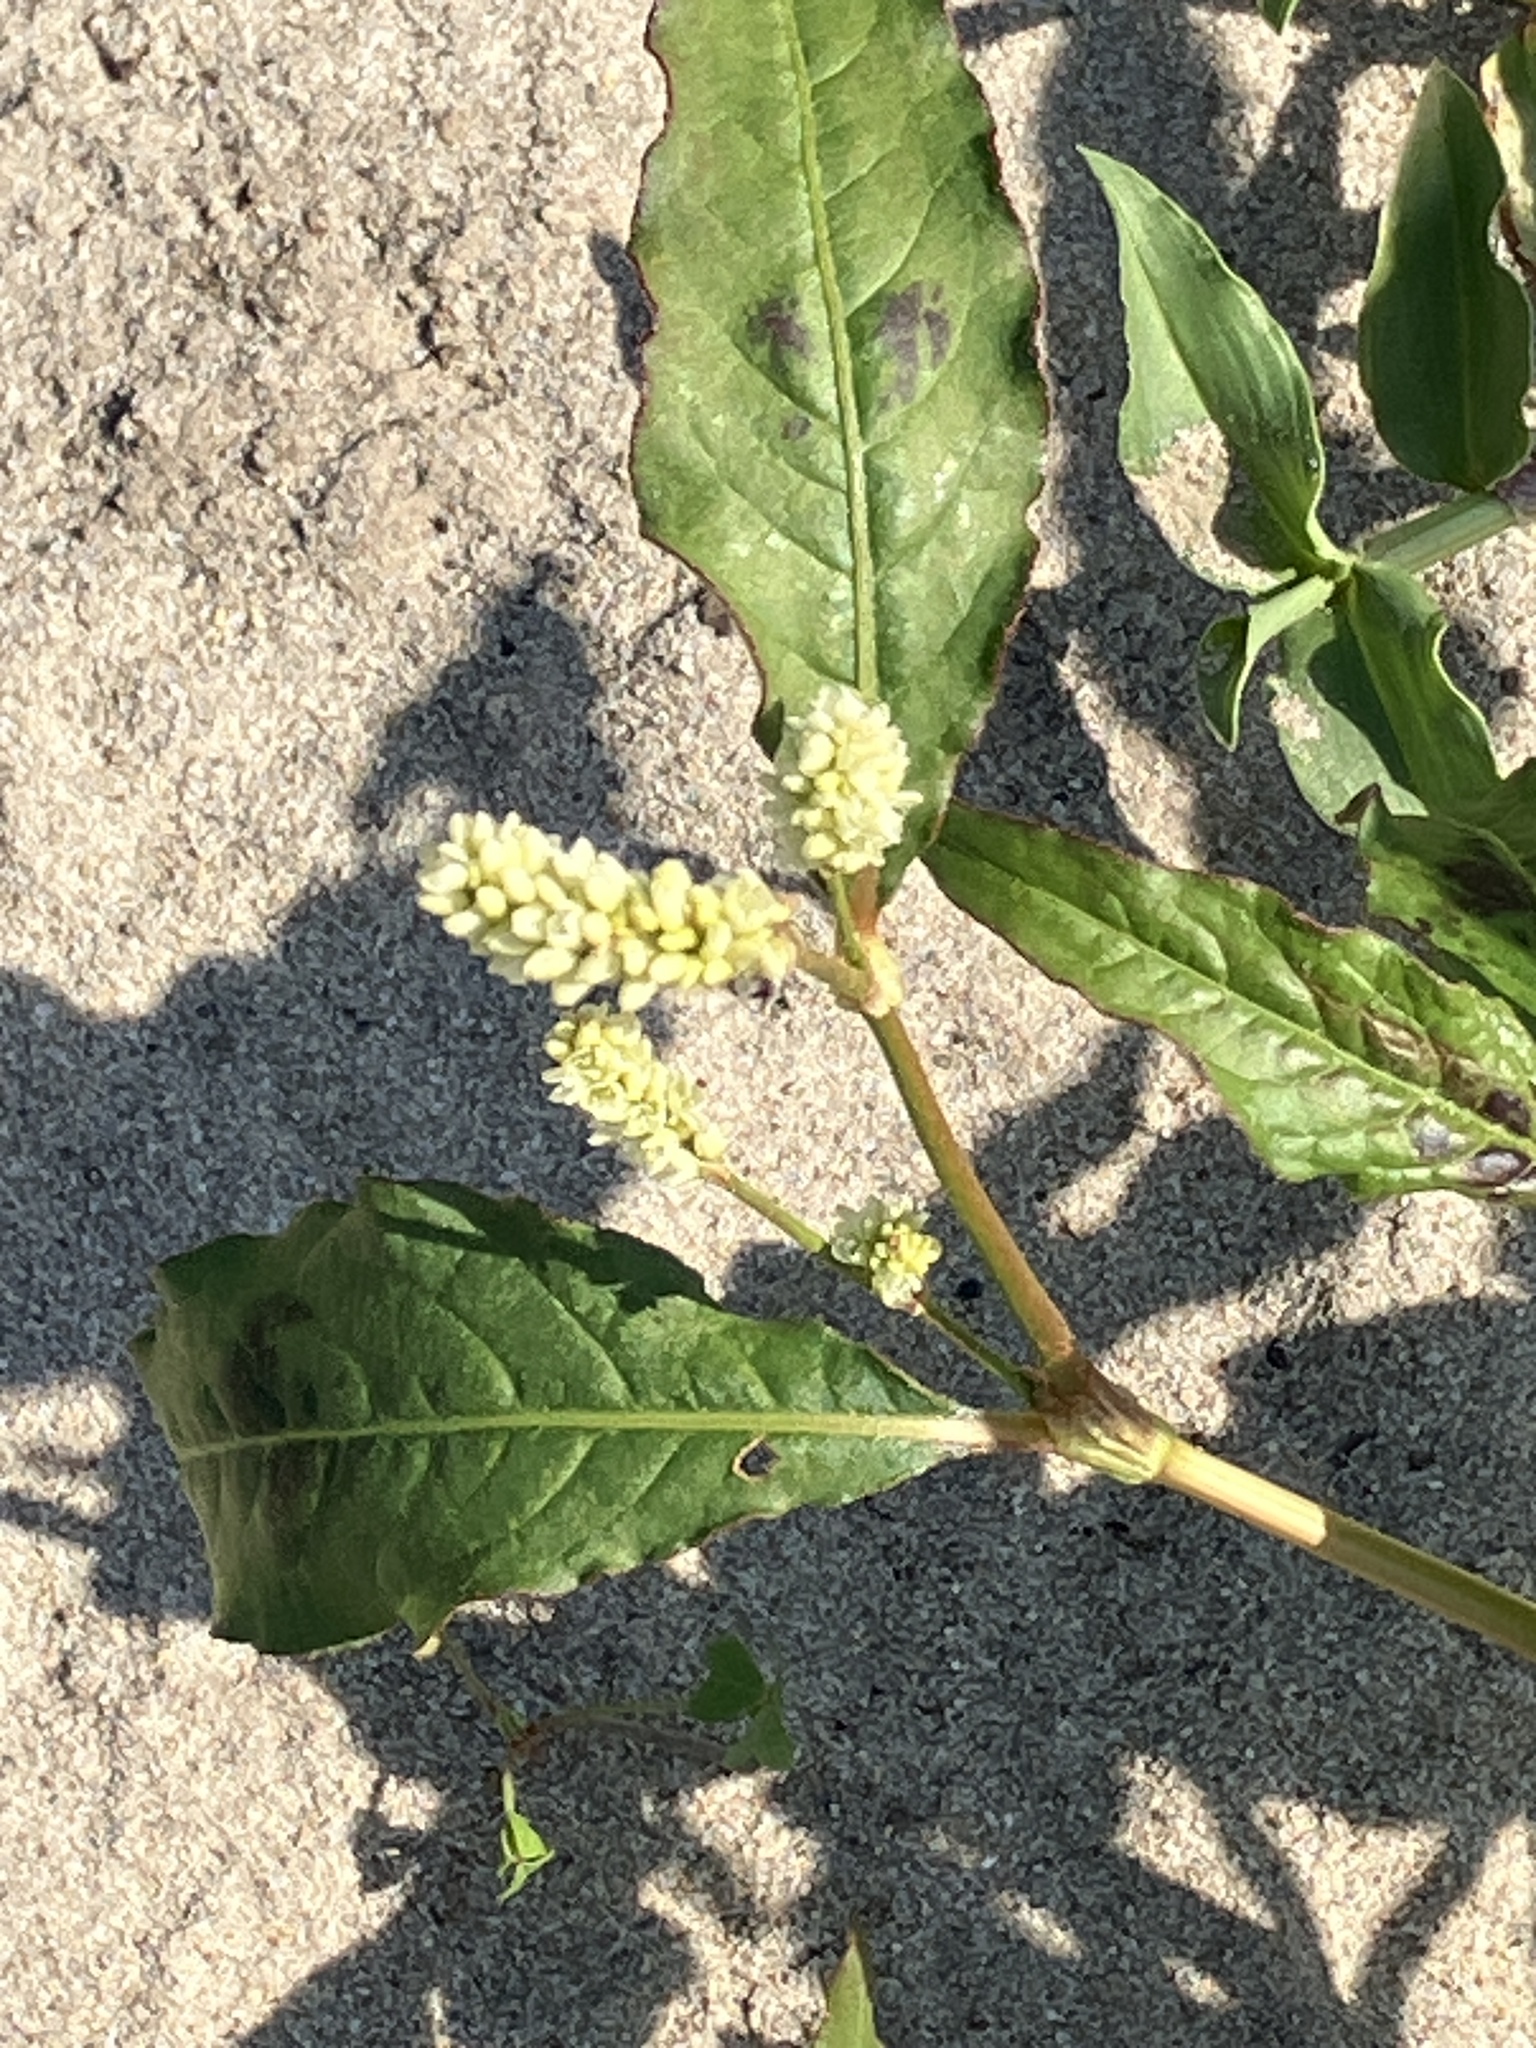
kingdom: Plantae
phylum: Tracheophyta
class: Magnoliopsida
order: Caryophyllales
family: Polygonaceae
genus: Persicaria
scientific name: Persicaria senegalensis
